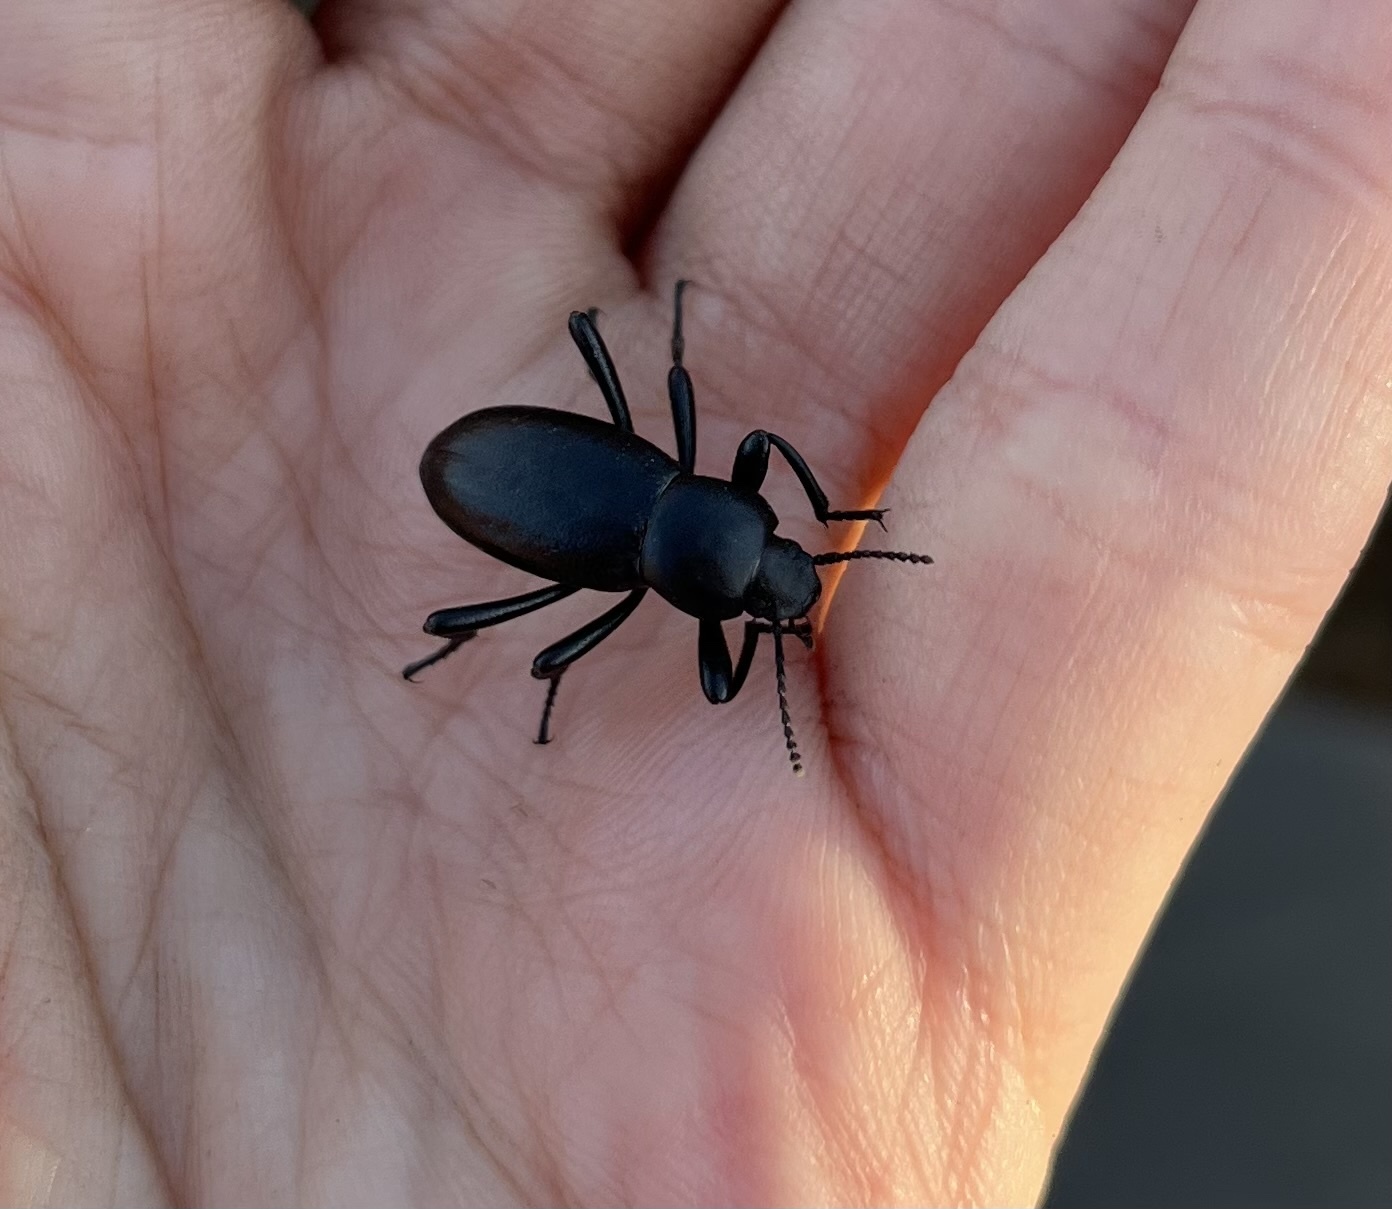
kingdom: Animalia
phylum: Arthropoda
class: Insecta
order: Coleoptera
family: Tenebrionidae
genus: Eleodes
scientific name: Eleodes carbonaria
